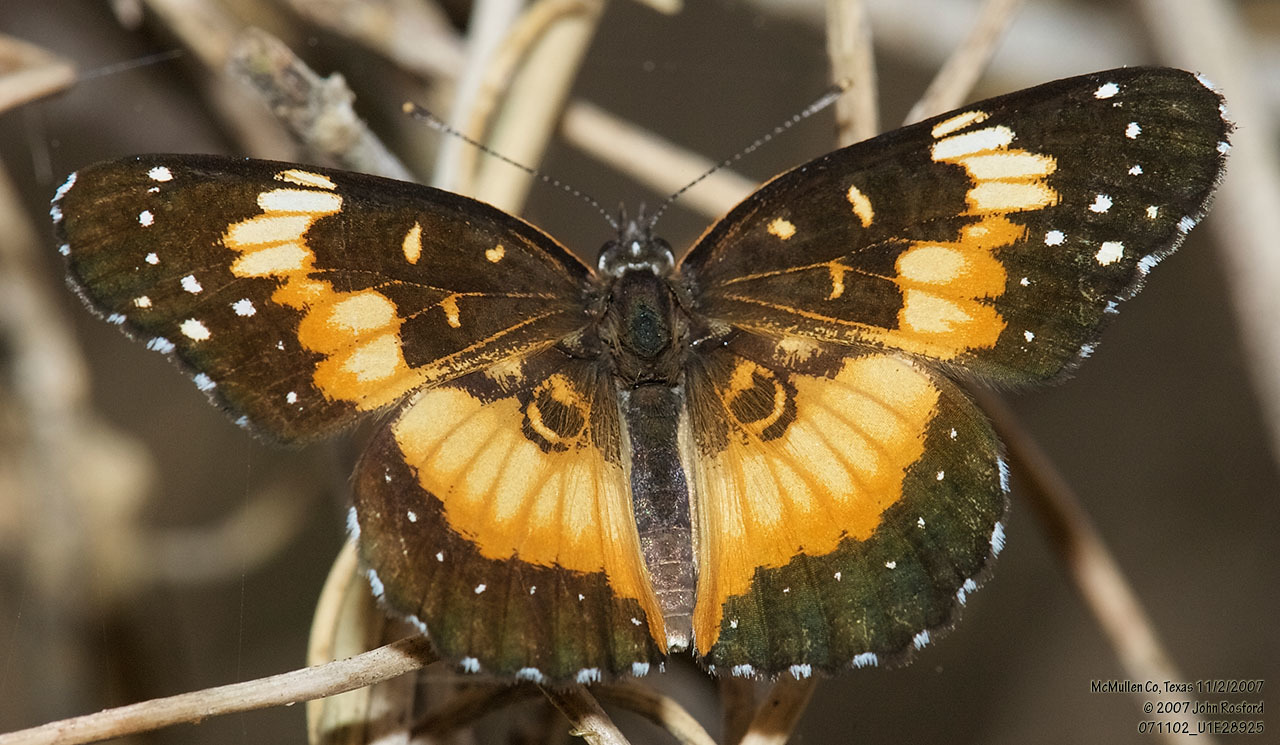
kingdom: Animalia
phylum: Arthropoda
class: Insecta
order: Lepidoptera
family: Nymphalidae
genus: Chlosyne
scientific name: Chlosyne lacinia
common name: Bordered patch
